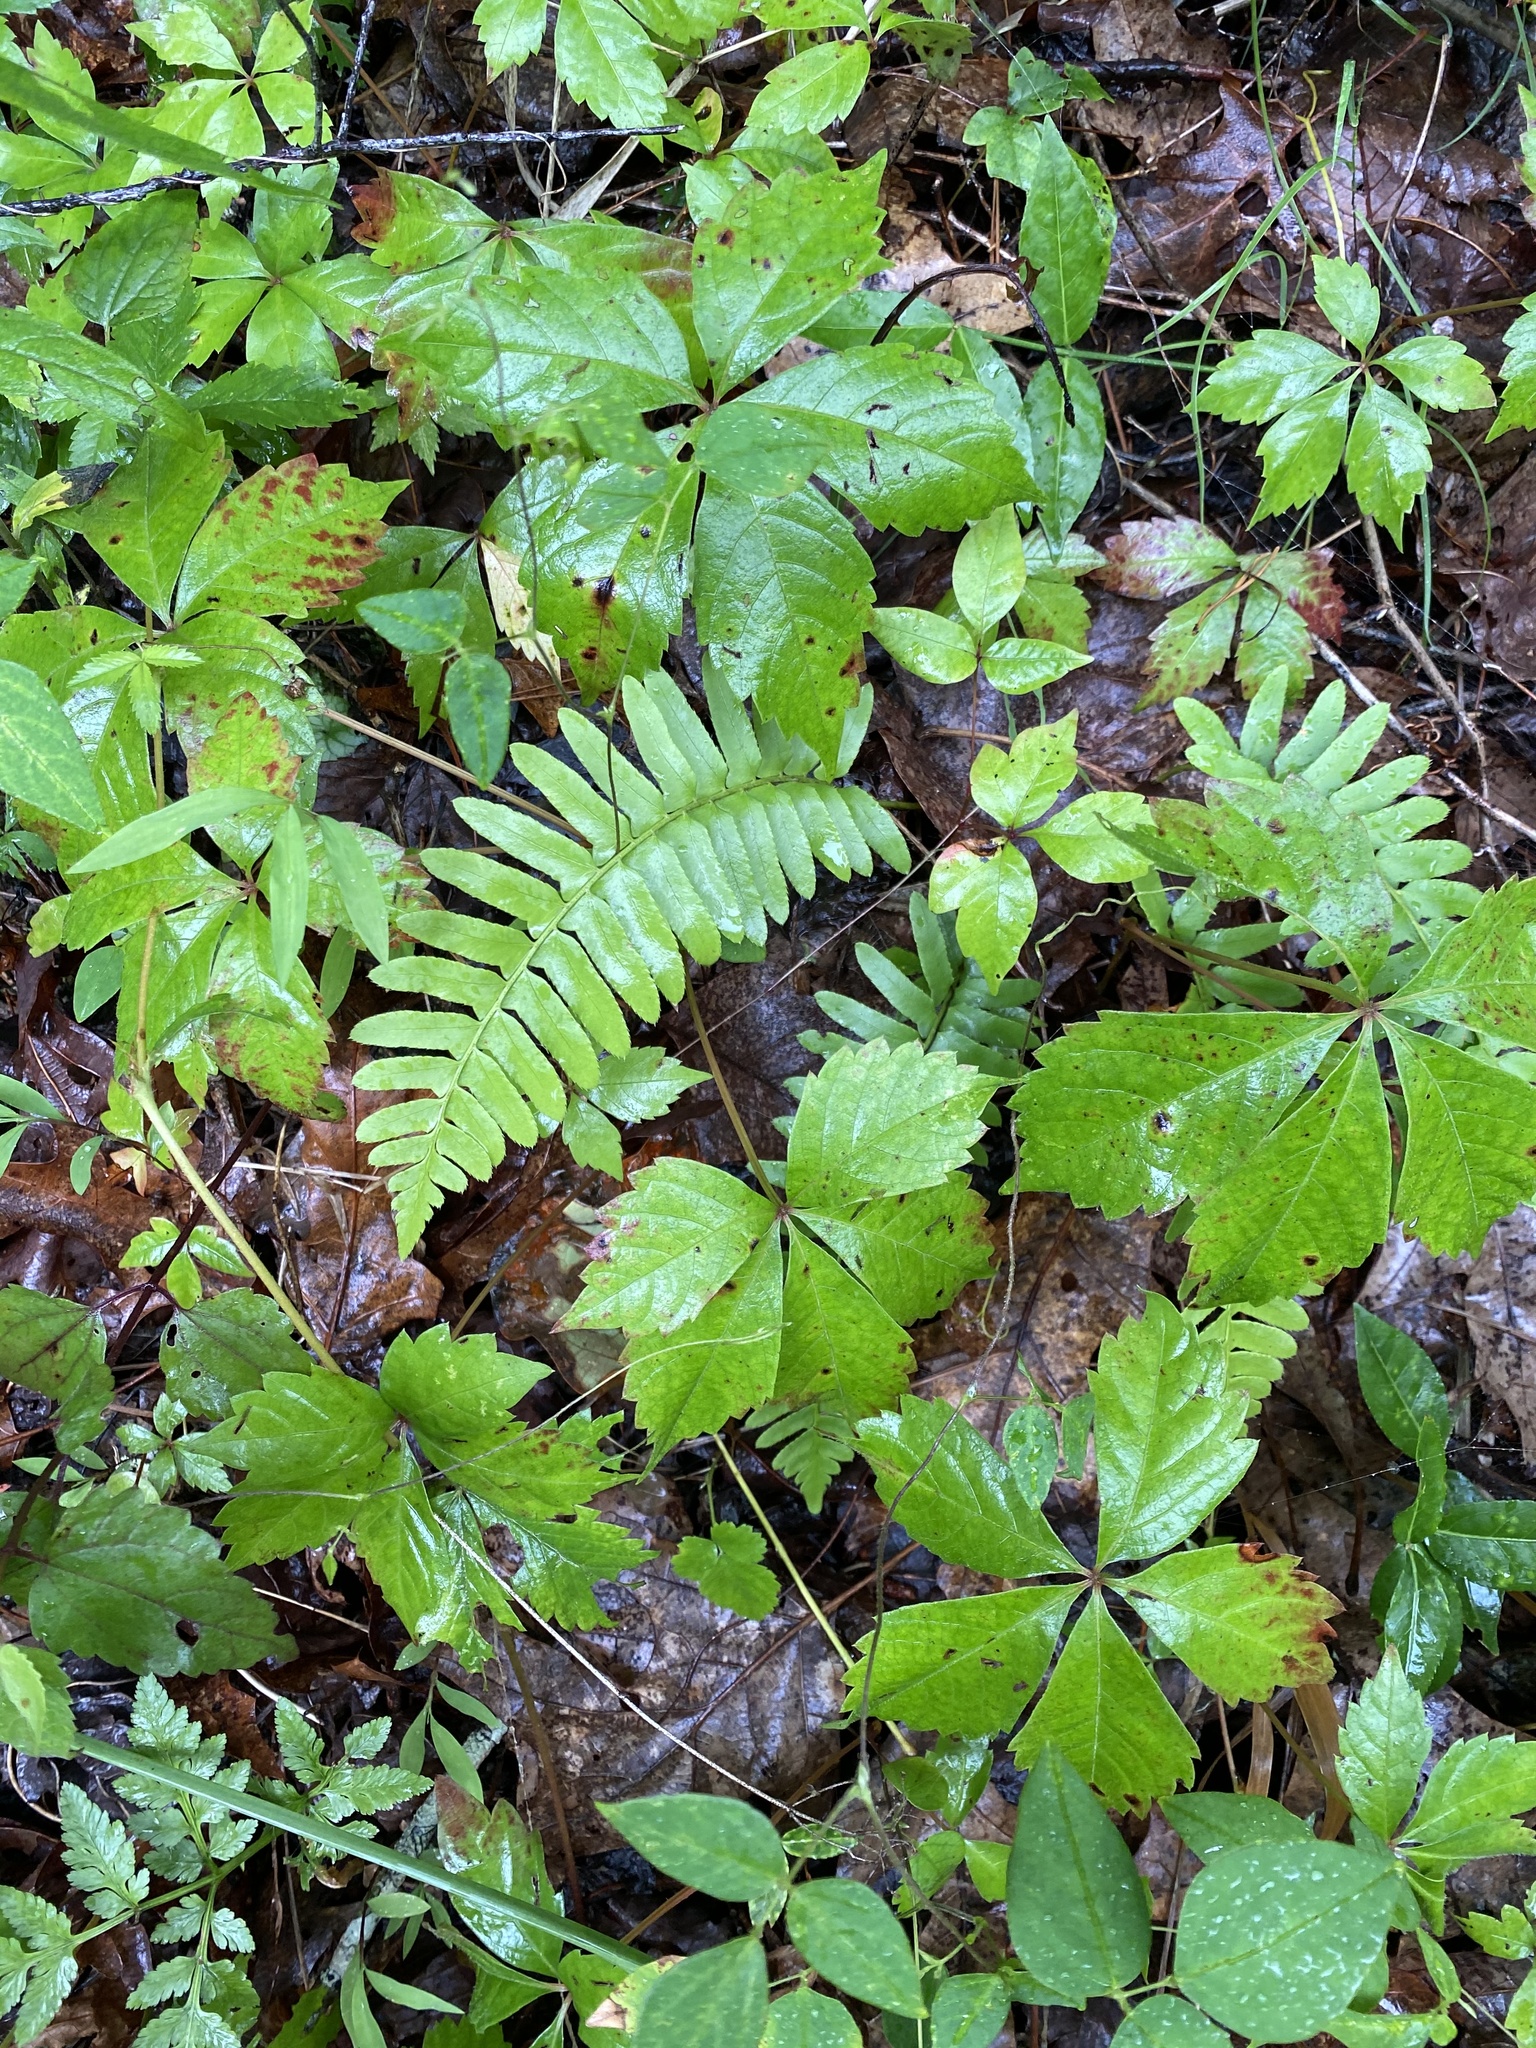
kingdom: Plantae
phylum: Tracheophyta
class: Polypodiopsida
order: Polypodiales
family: Dryopteridaceae
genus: Polystichum
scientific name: Polystichum acrostichoides
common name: Christmas fern
